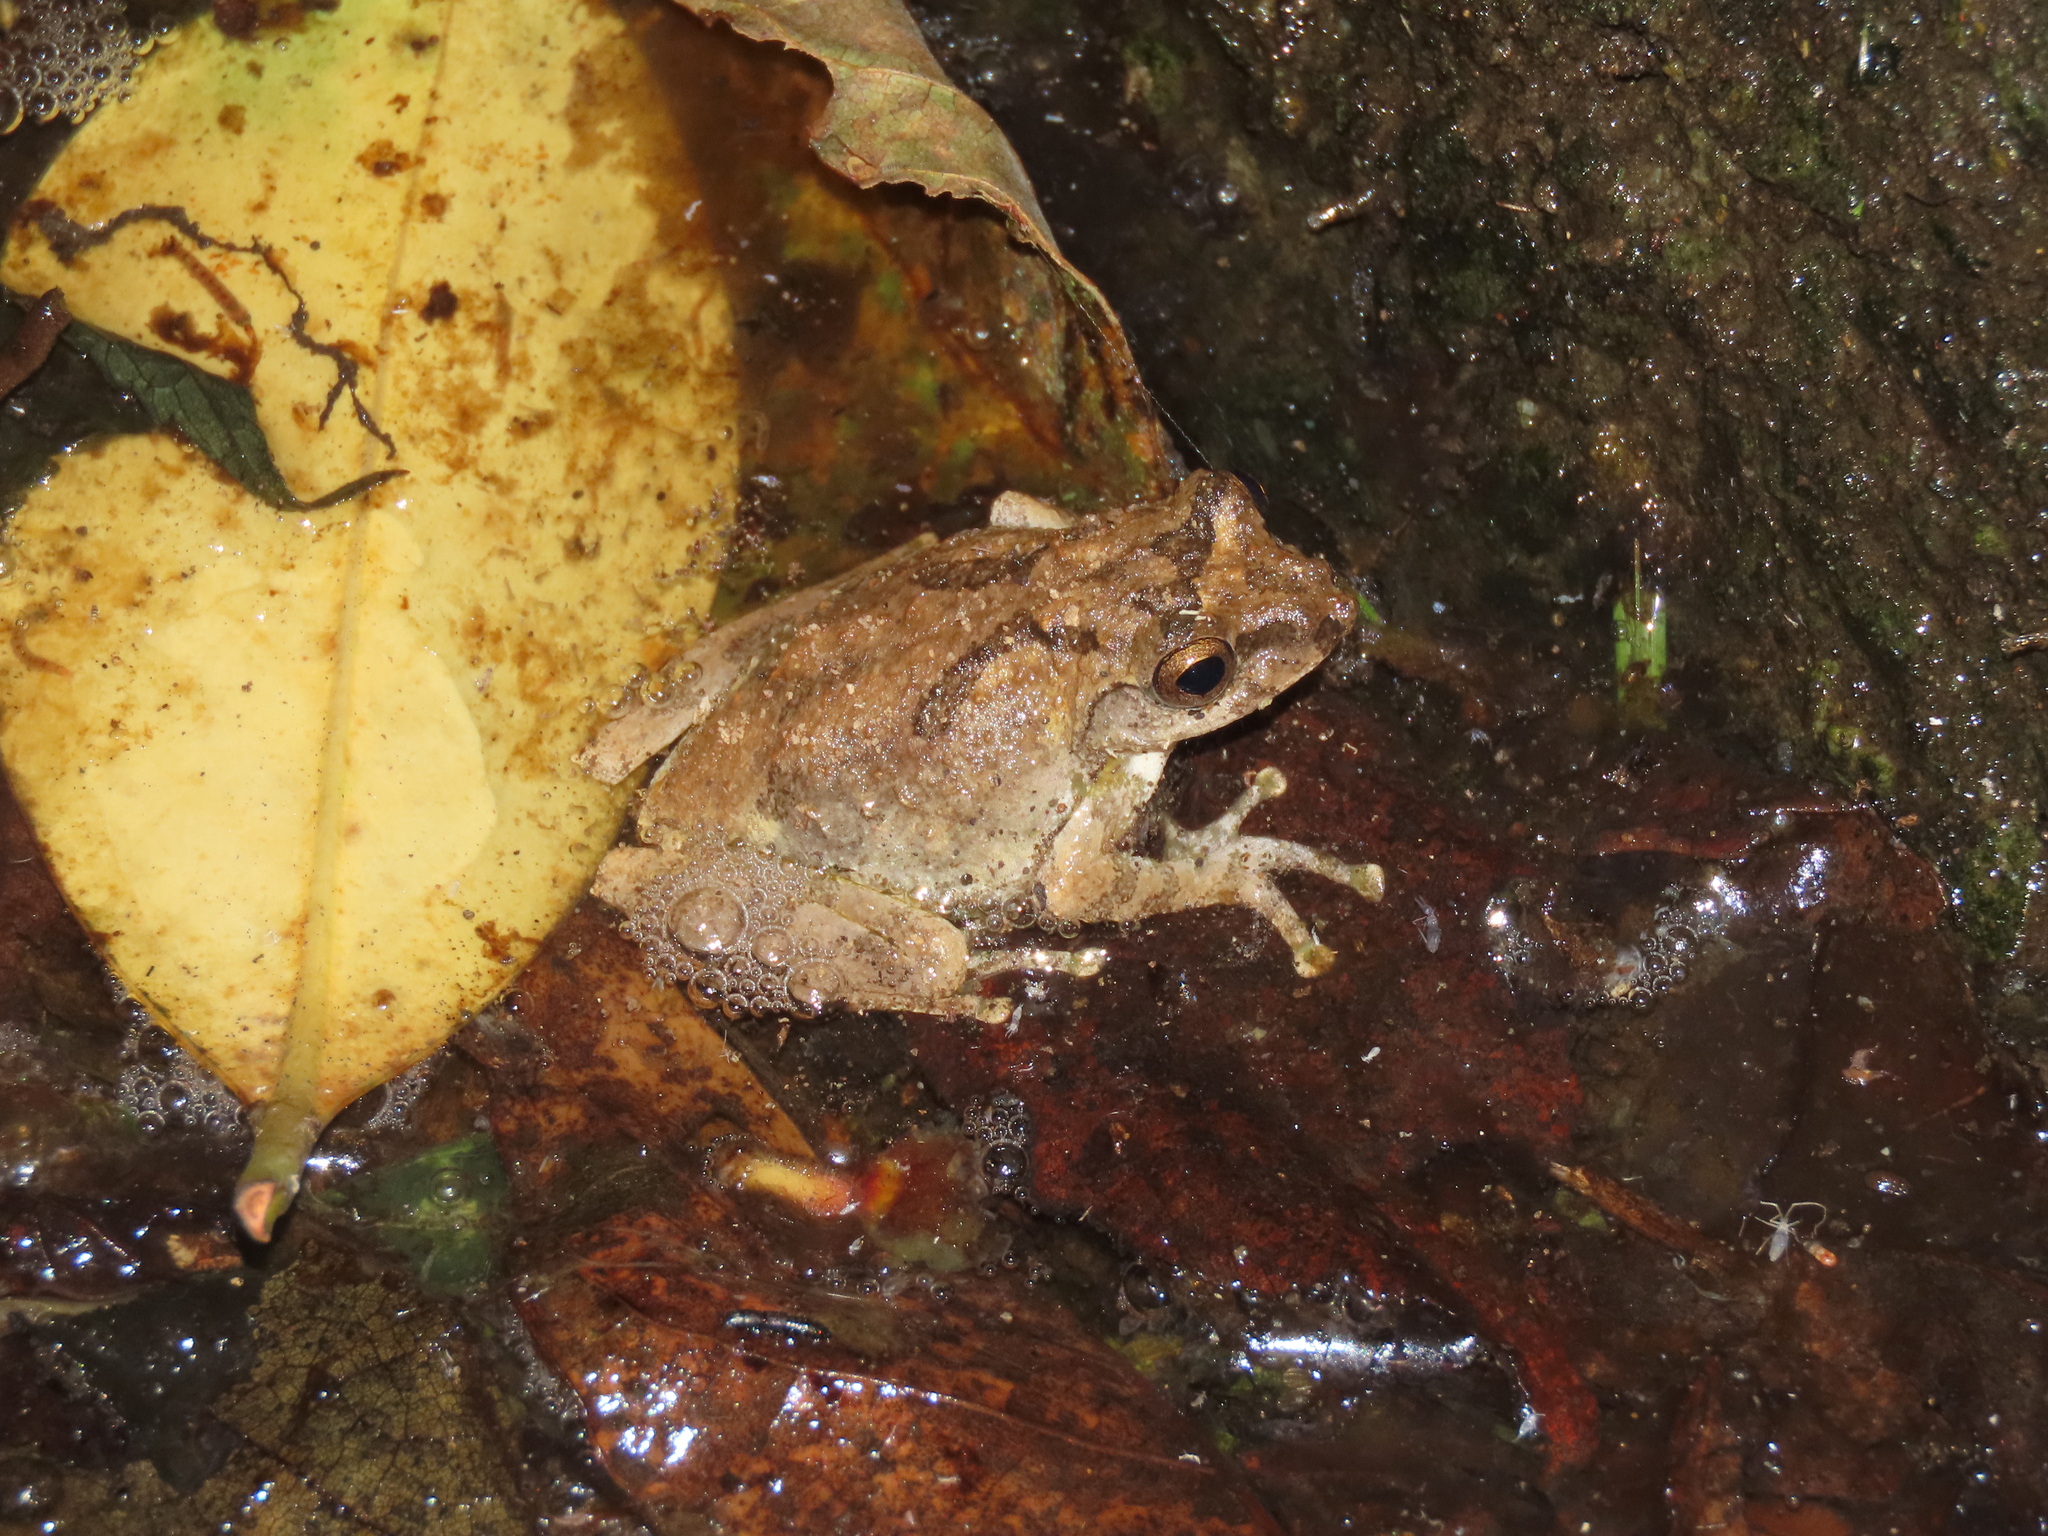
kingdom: Animalia
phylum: Chordata
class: Amphibia
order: Anura
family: Rhacophoridae
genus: Kurixalus
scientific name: Kurixalus idiootocus
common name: Temple treefrog
